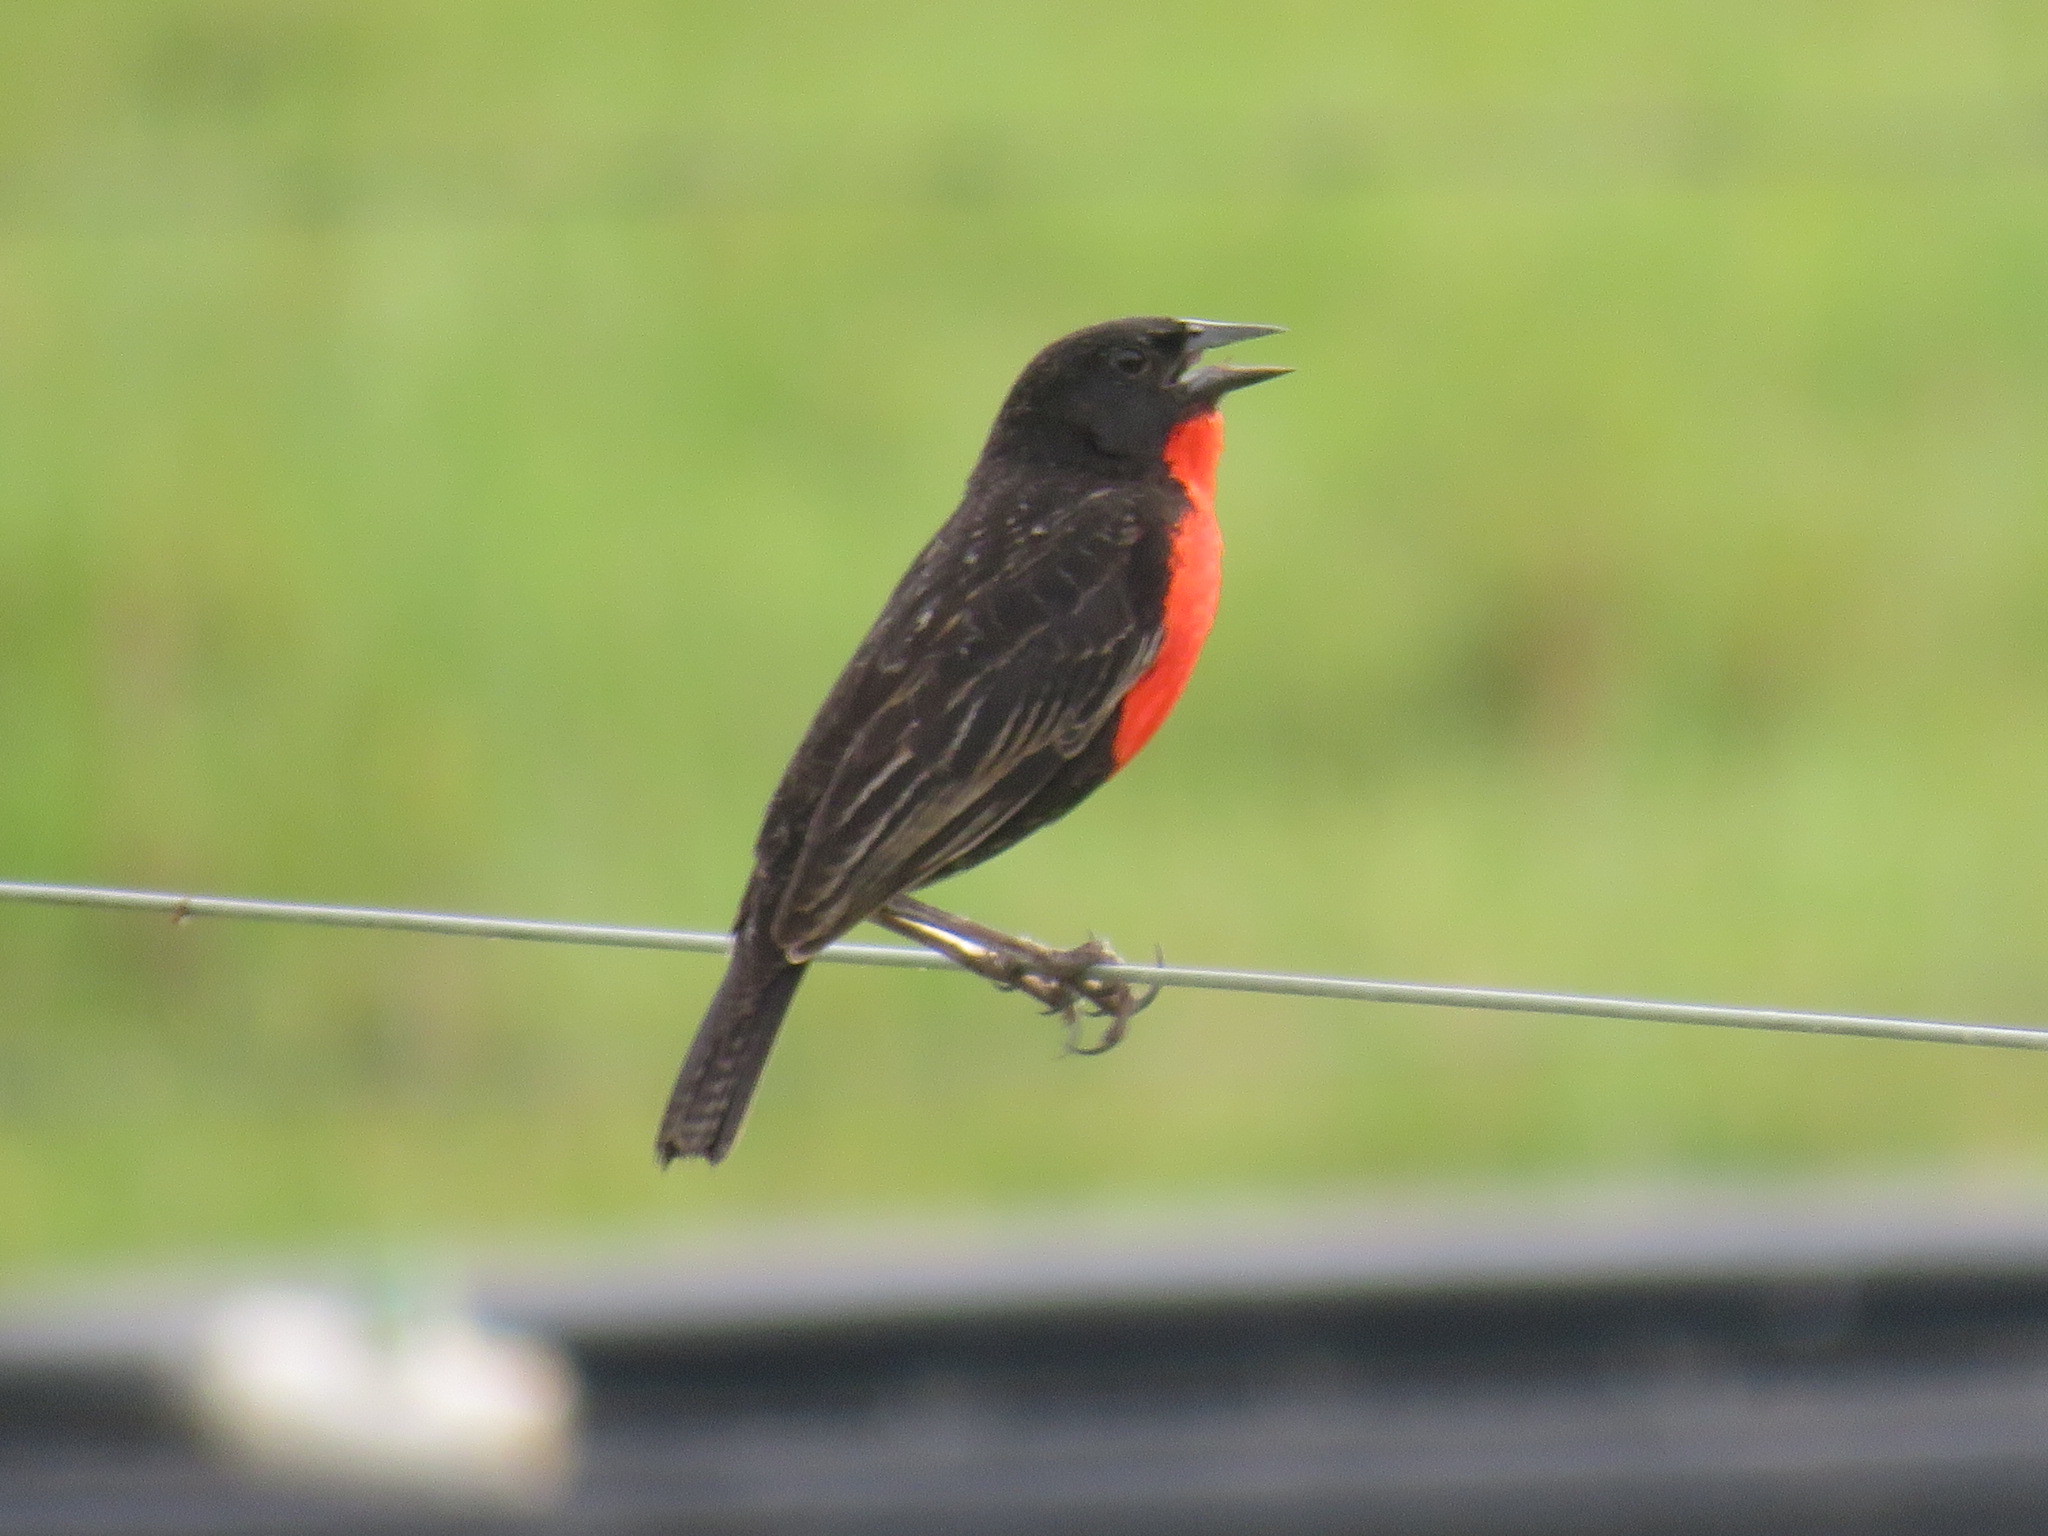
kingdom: Animalia
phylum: Chordata
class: Aves
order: Passeriformes
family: Icteridae
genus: Sturnella
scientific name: Sturnella militaris
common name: Red-breasted blackbird
